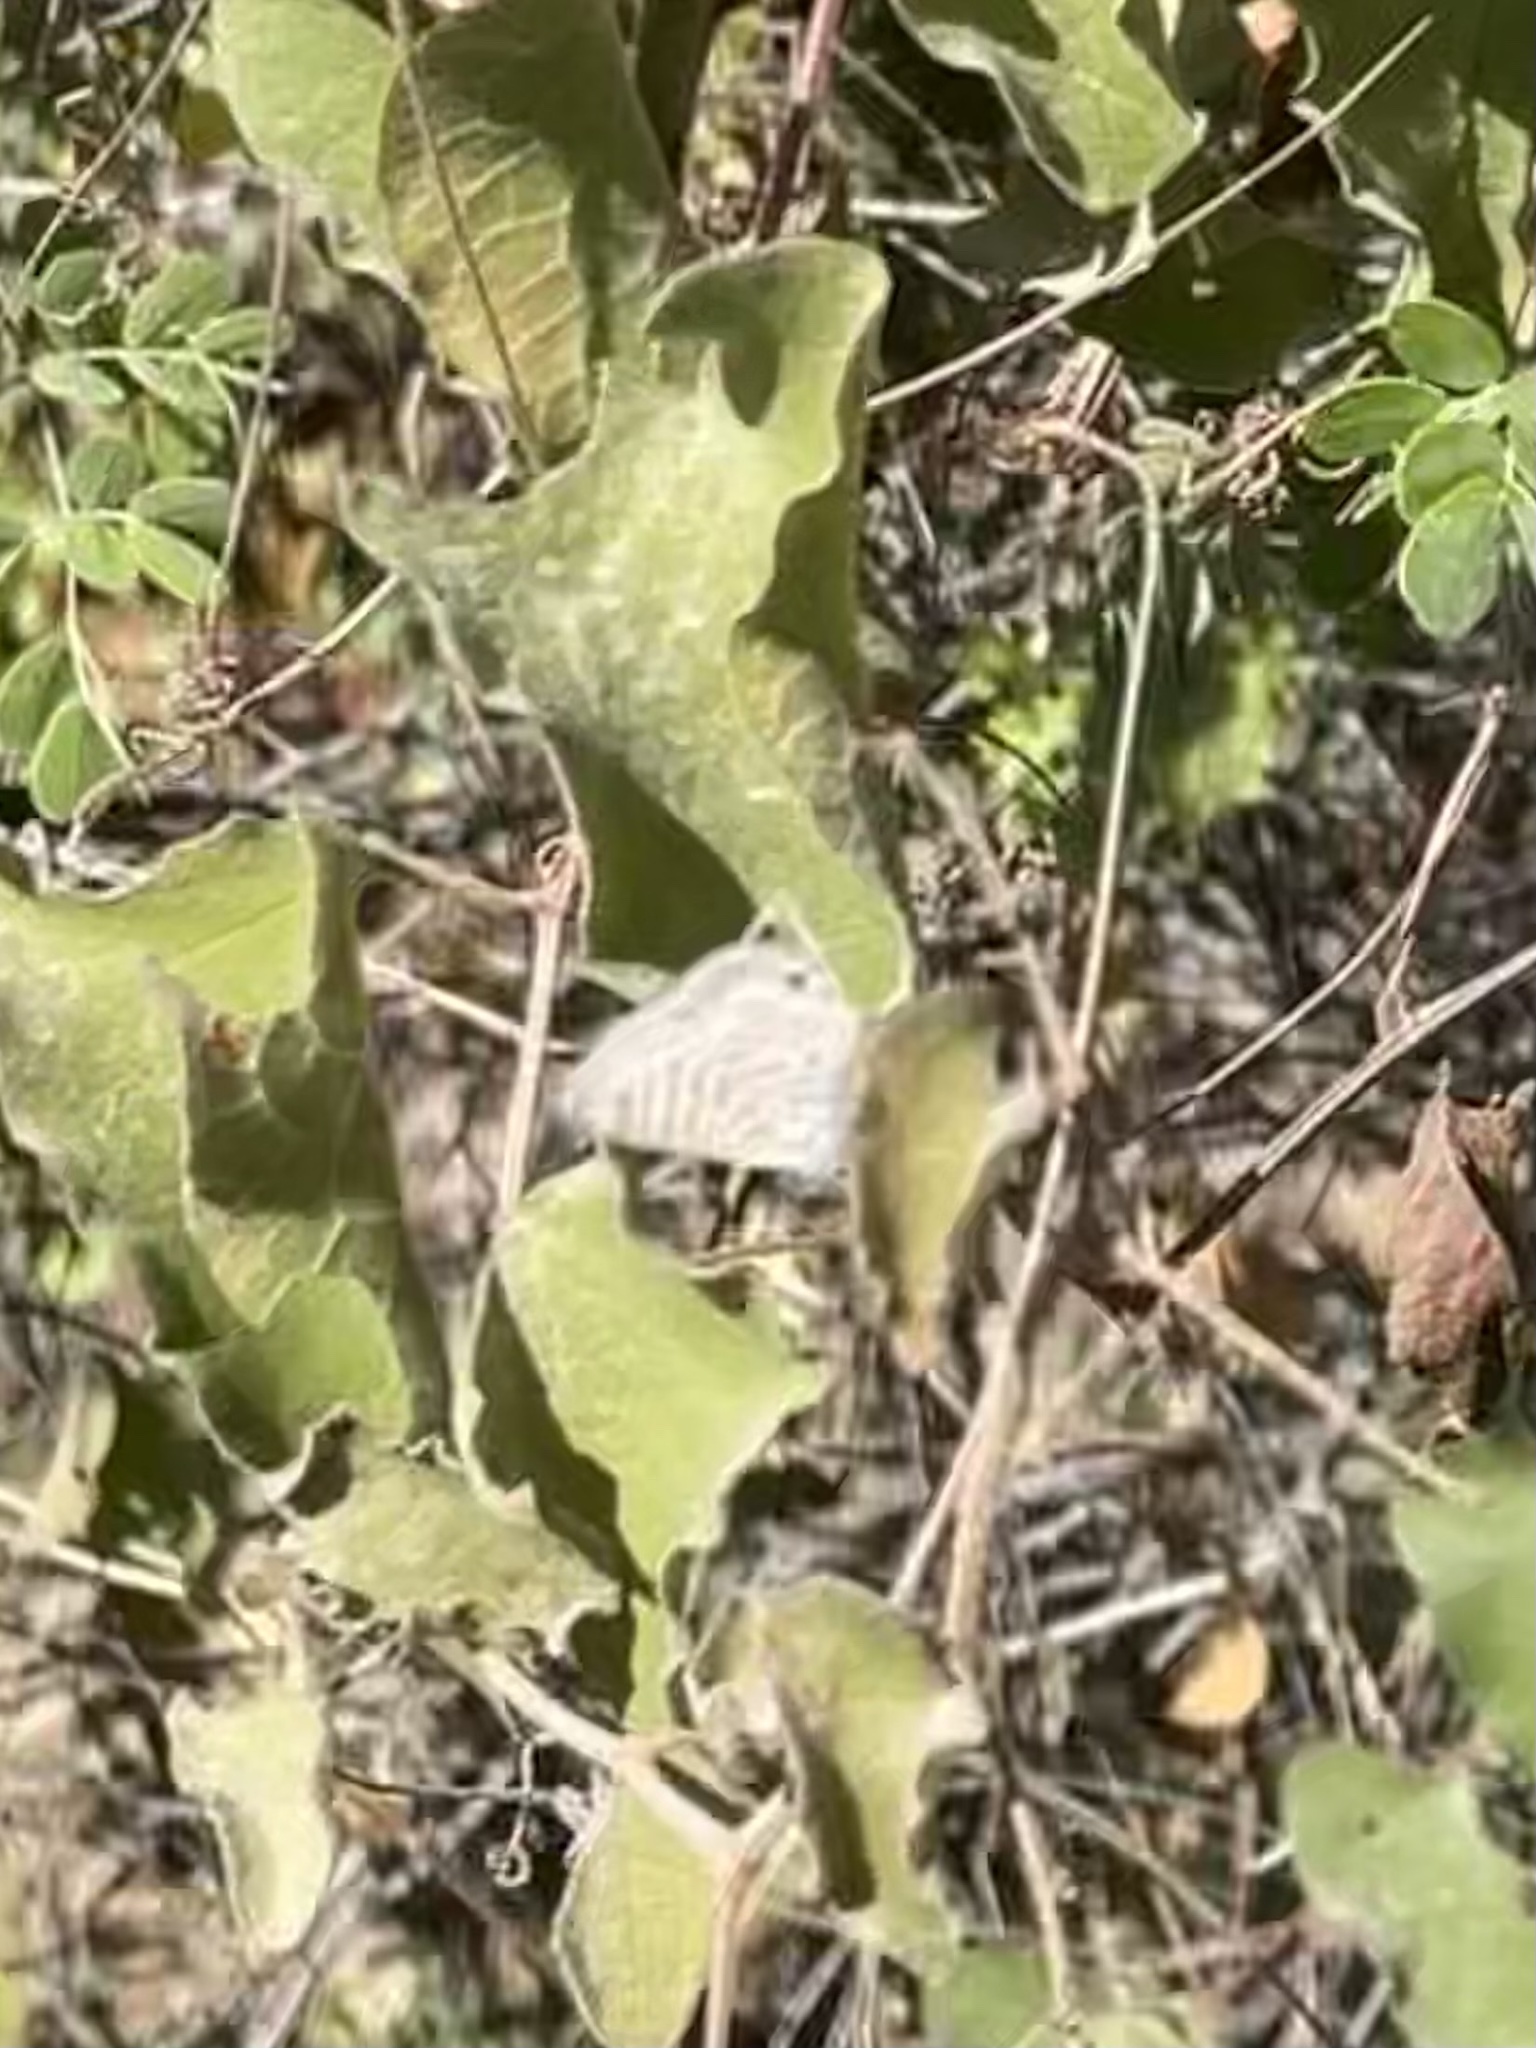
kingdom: Animalia
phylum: Arthropoda
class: Insecta
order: Lepidoptera
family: Lycaenidae
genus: Leptotes
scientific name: Leptotes marina
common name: Marine blue
